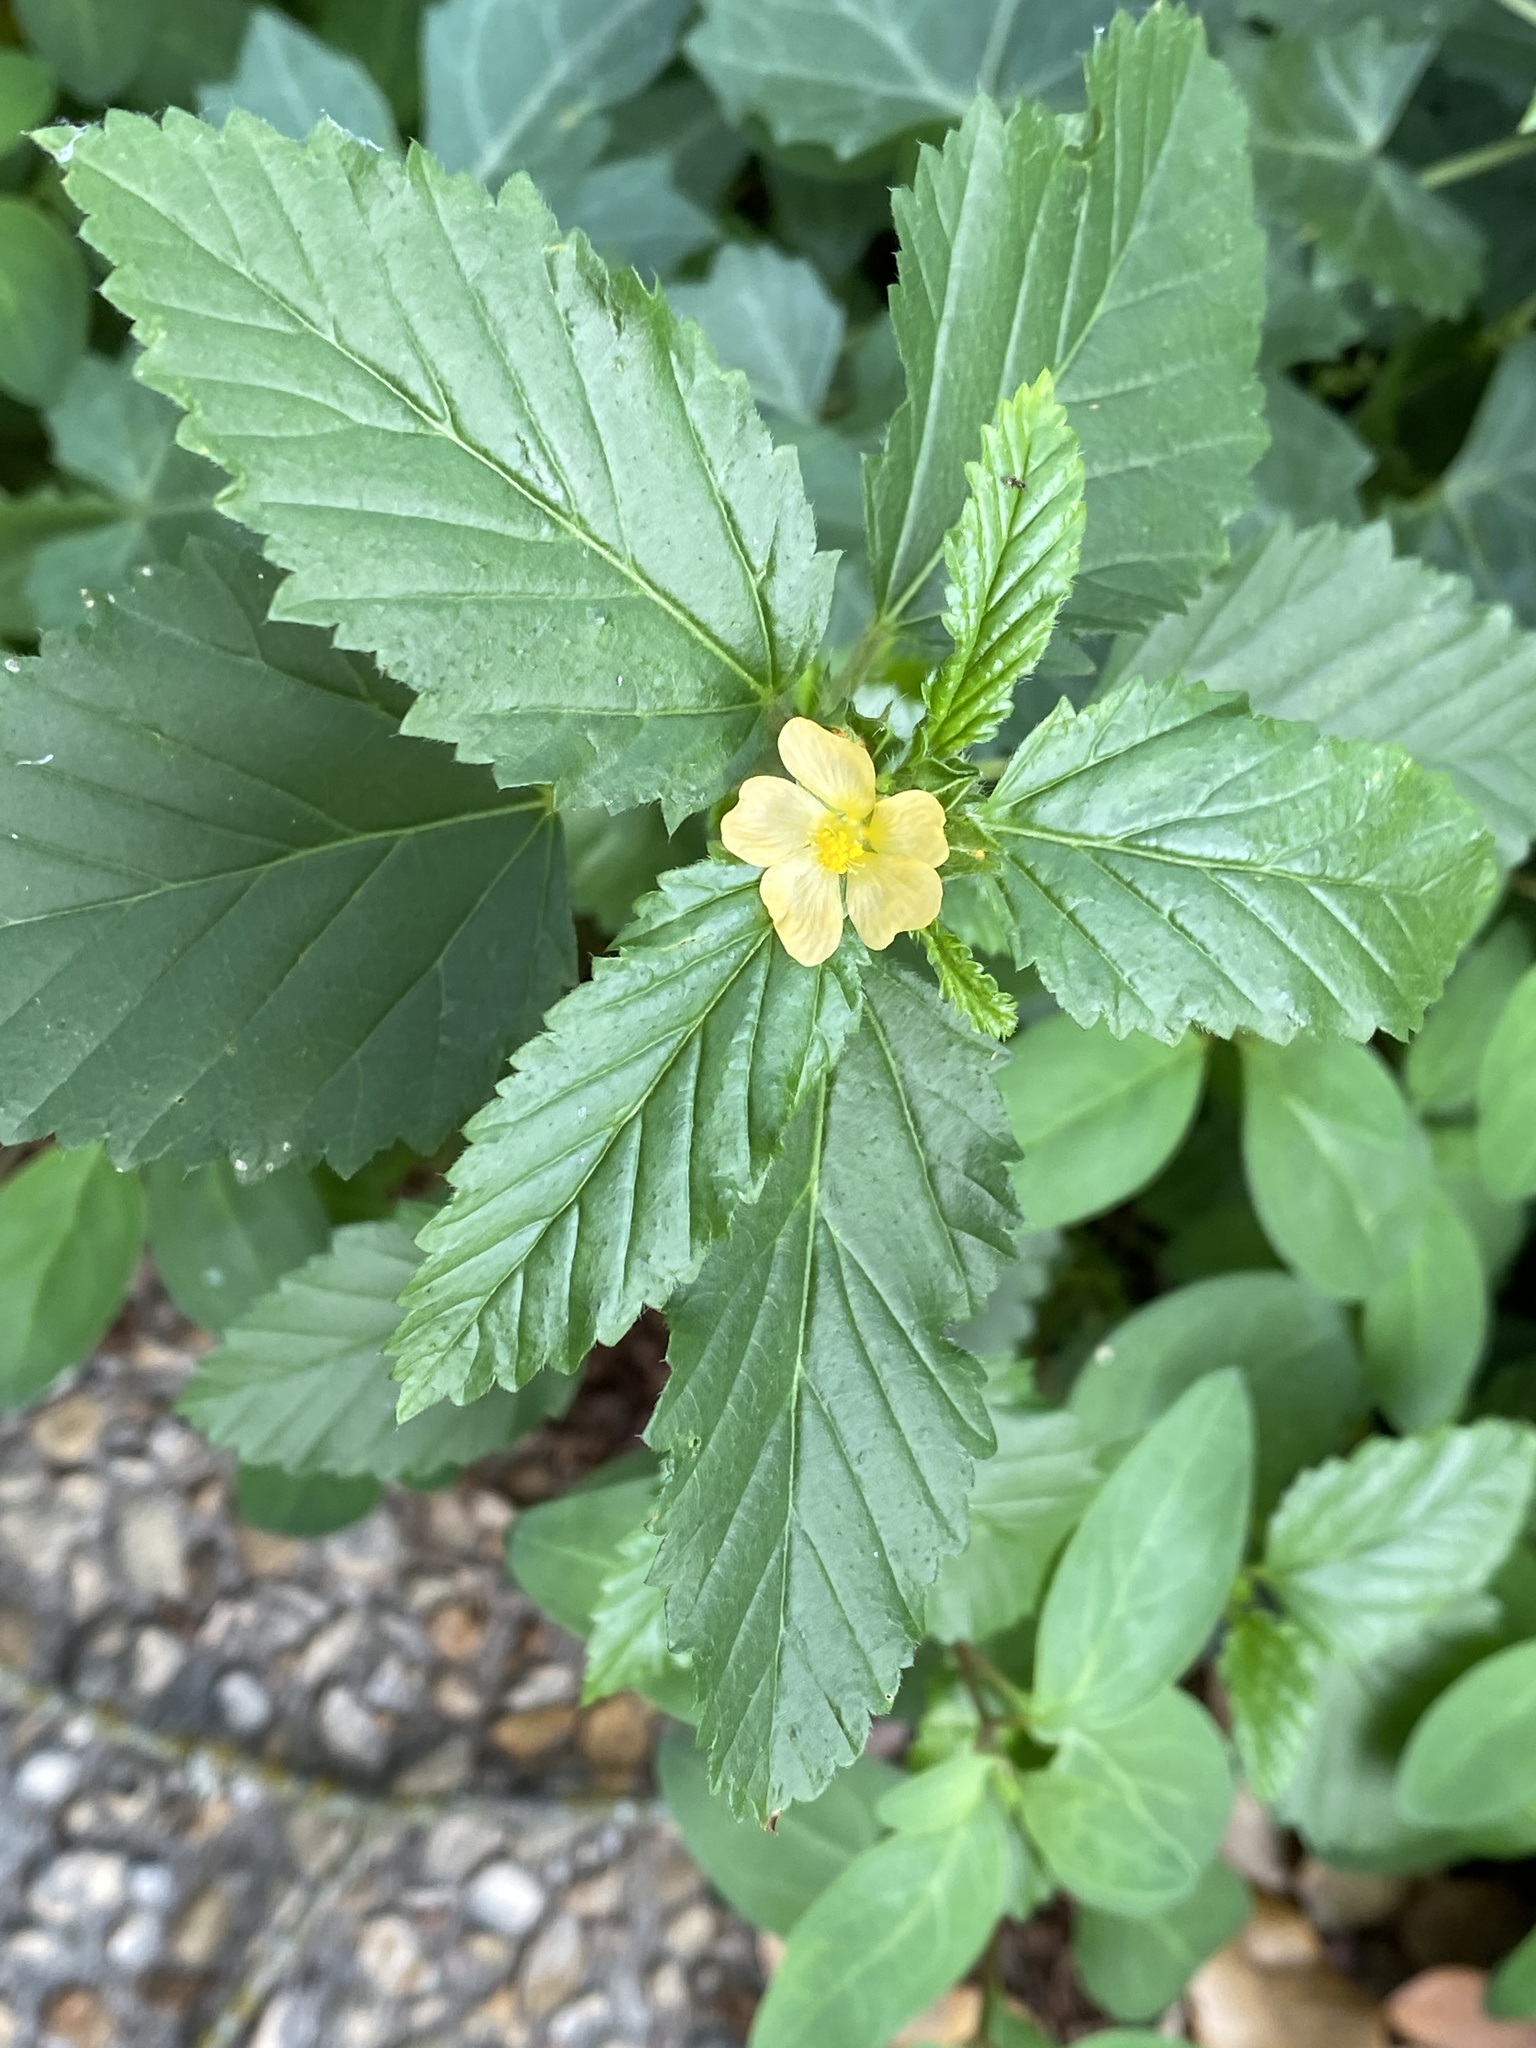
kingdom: Plantae
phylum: Tracheophyta
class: Magnoliopsida
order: Malvales
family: Malvaceae
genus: Malvastrum
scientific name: Malvastrum coromandelianum
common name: Threelobe false mallow
